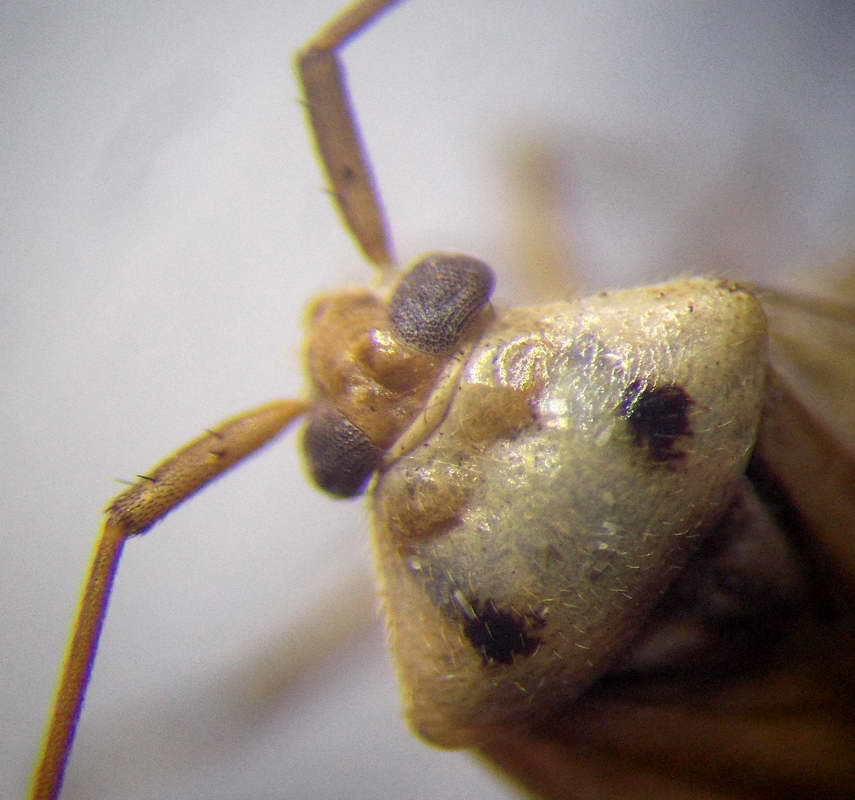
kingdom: Animalia
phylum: Arthropoda
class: Insecta
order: Hemiptera
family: Miridae
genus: Adelphocoris
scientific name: Adelphocoris lineolatus
